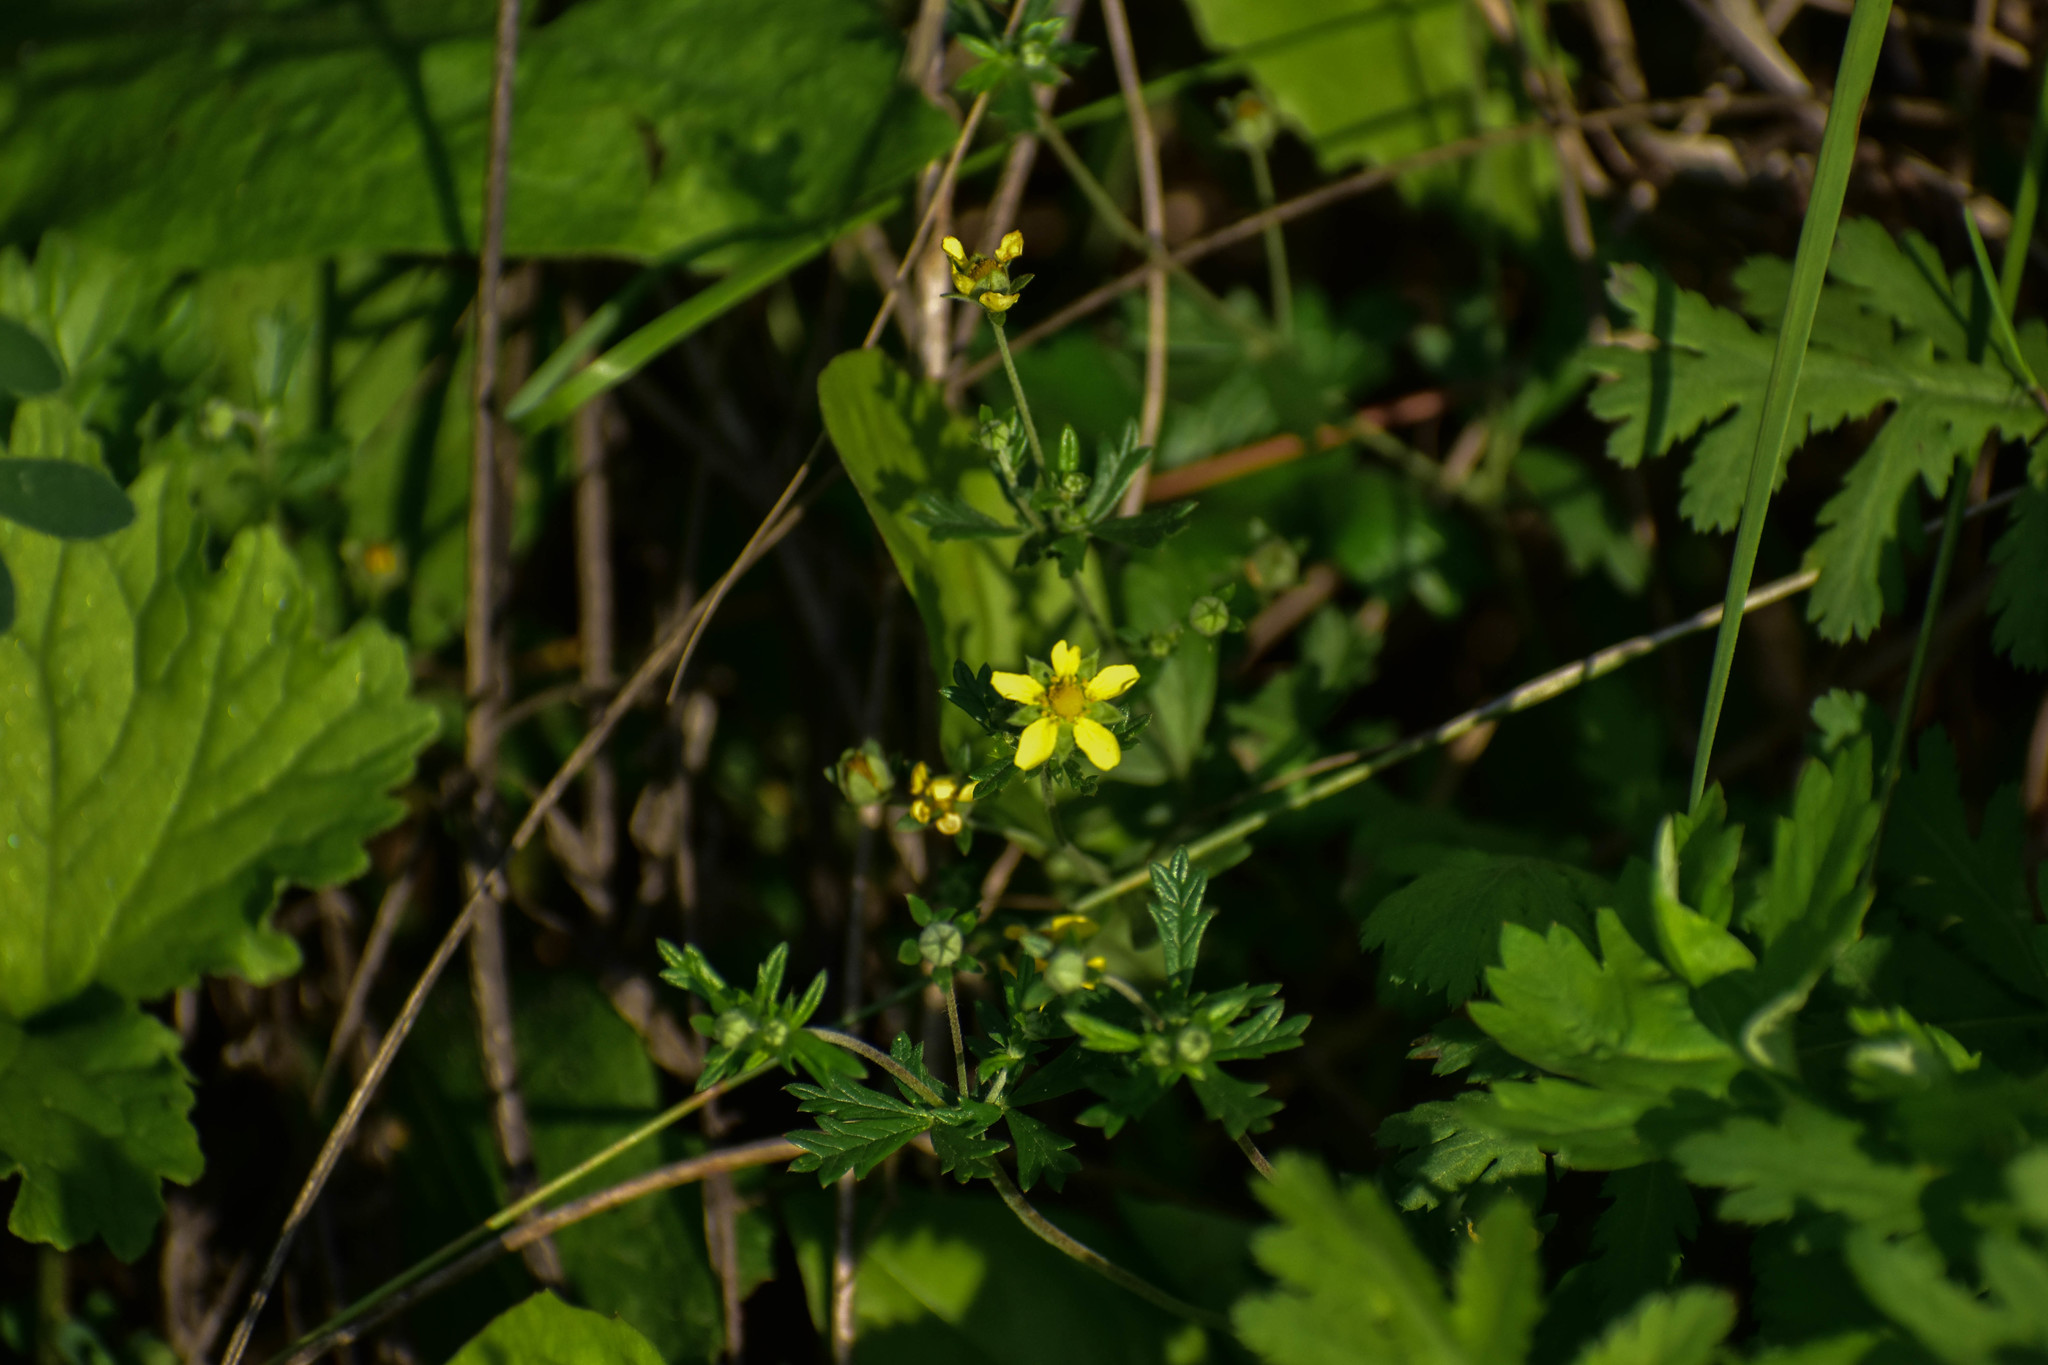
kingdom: Plantae
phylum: Tracheophyta
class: Magnoliopsida
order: Rosales
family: Rosaceae
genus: Potentilla
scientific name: Potentilla argentea
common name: Hoary cinquefoil
